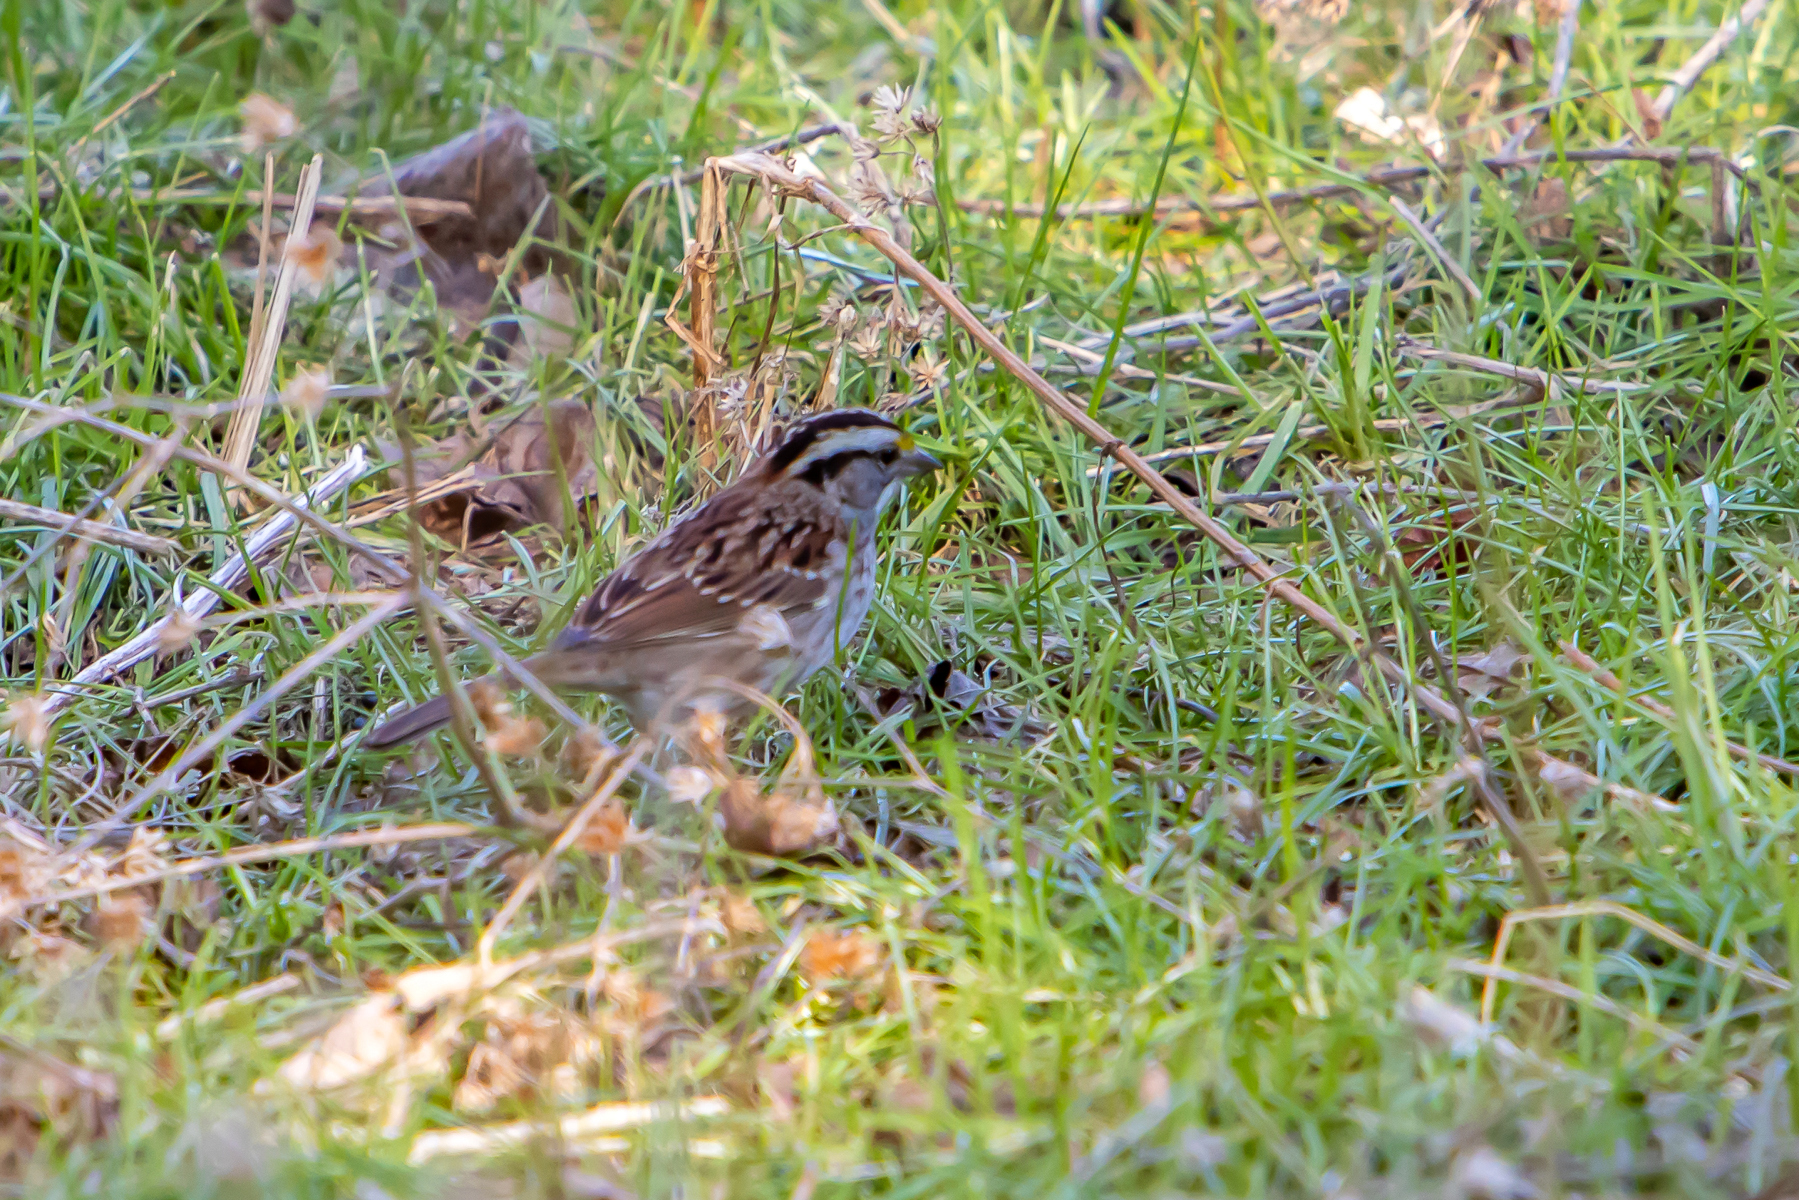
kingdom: Animalia
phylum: Chordata
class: Aves
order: Passeriformes
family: Passerellidae
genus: Zonotrichia
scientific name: Zonotrichia albicollis
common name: White-throated sparrow
